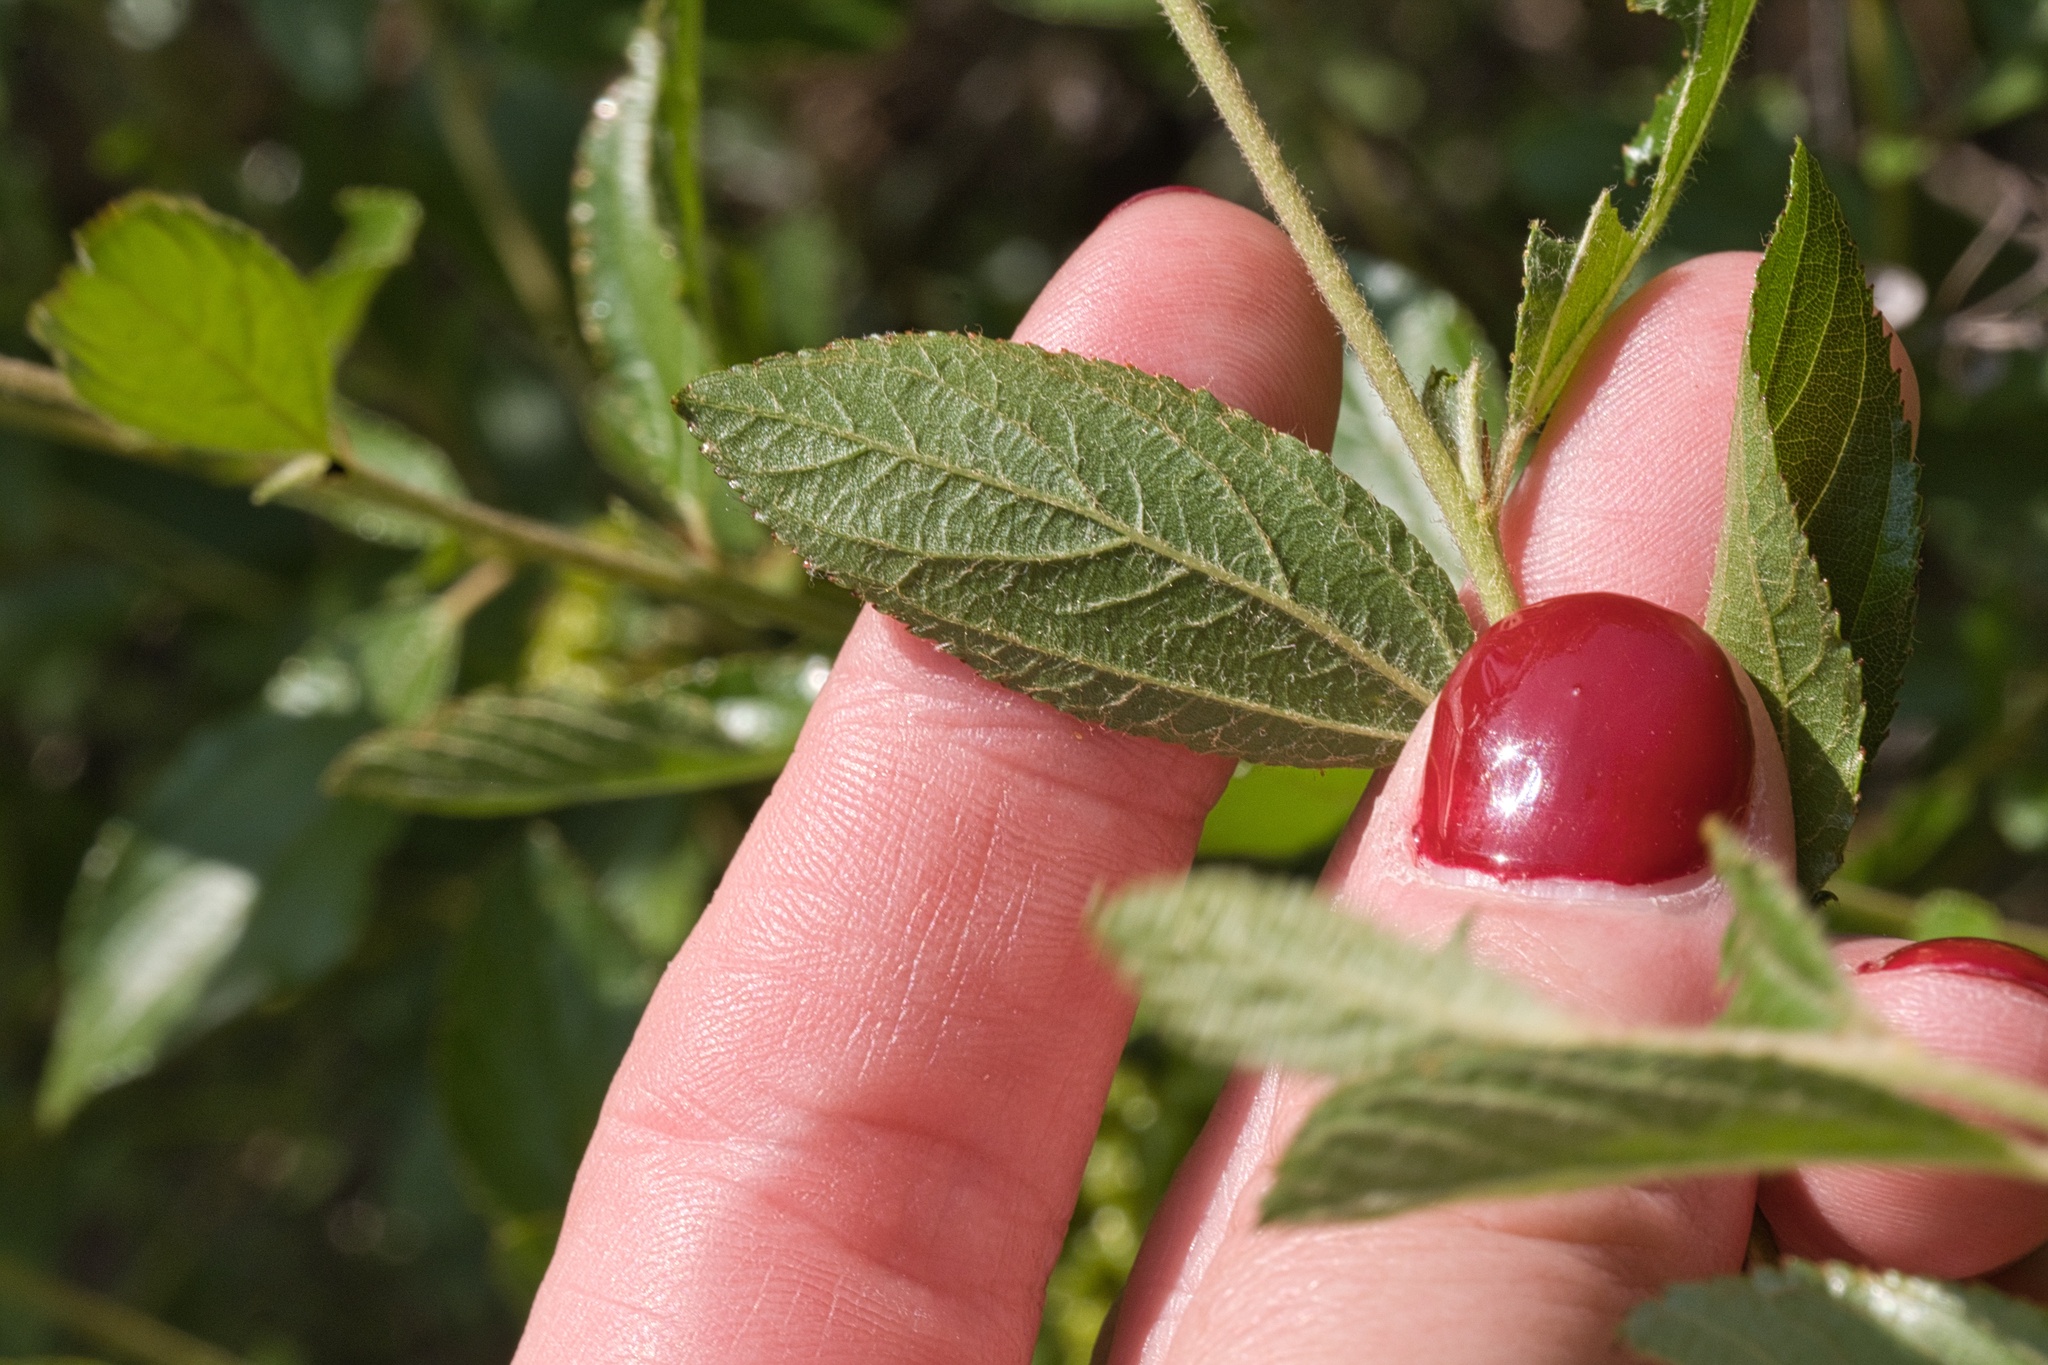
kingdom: Plantae
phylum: Tracheophyta
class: Magnoliopsida
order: Rosales
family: Rhamnaceae
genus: Ceanothus
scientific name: Ceanothus herbaceus
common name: Inland ceanothus
